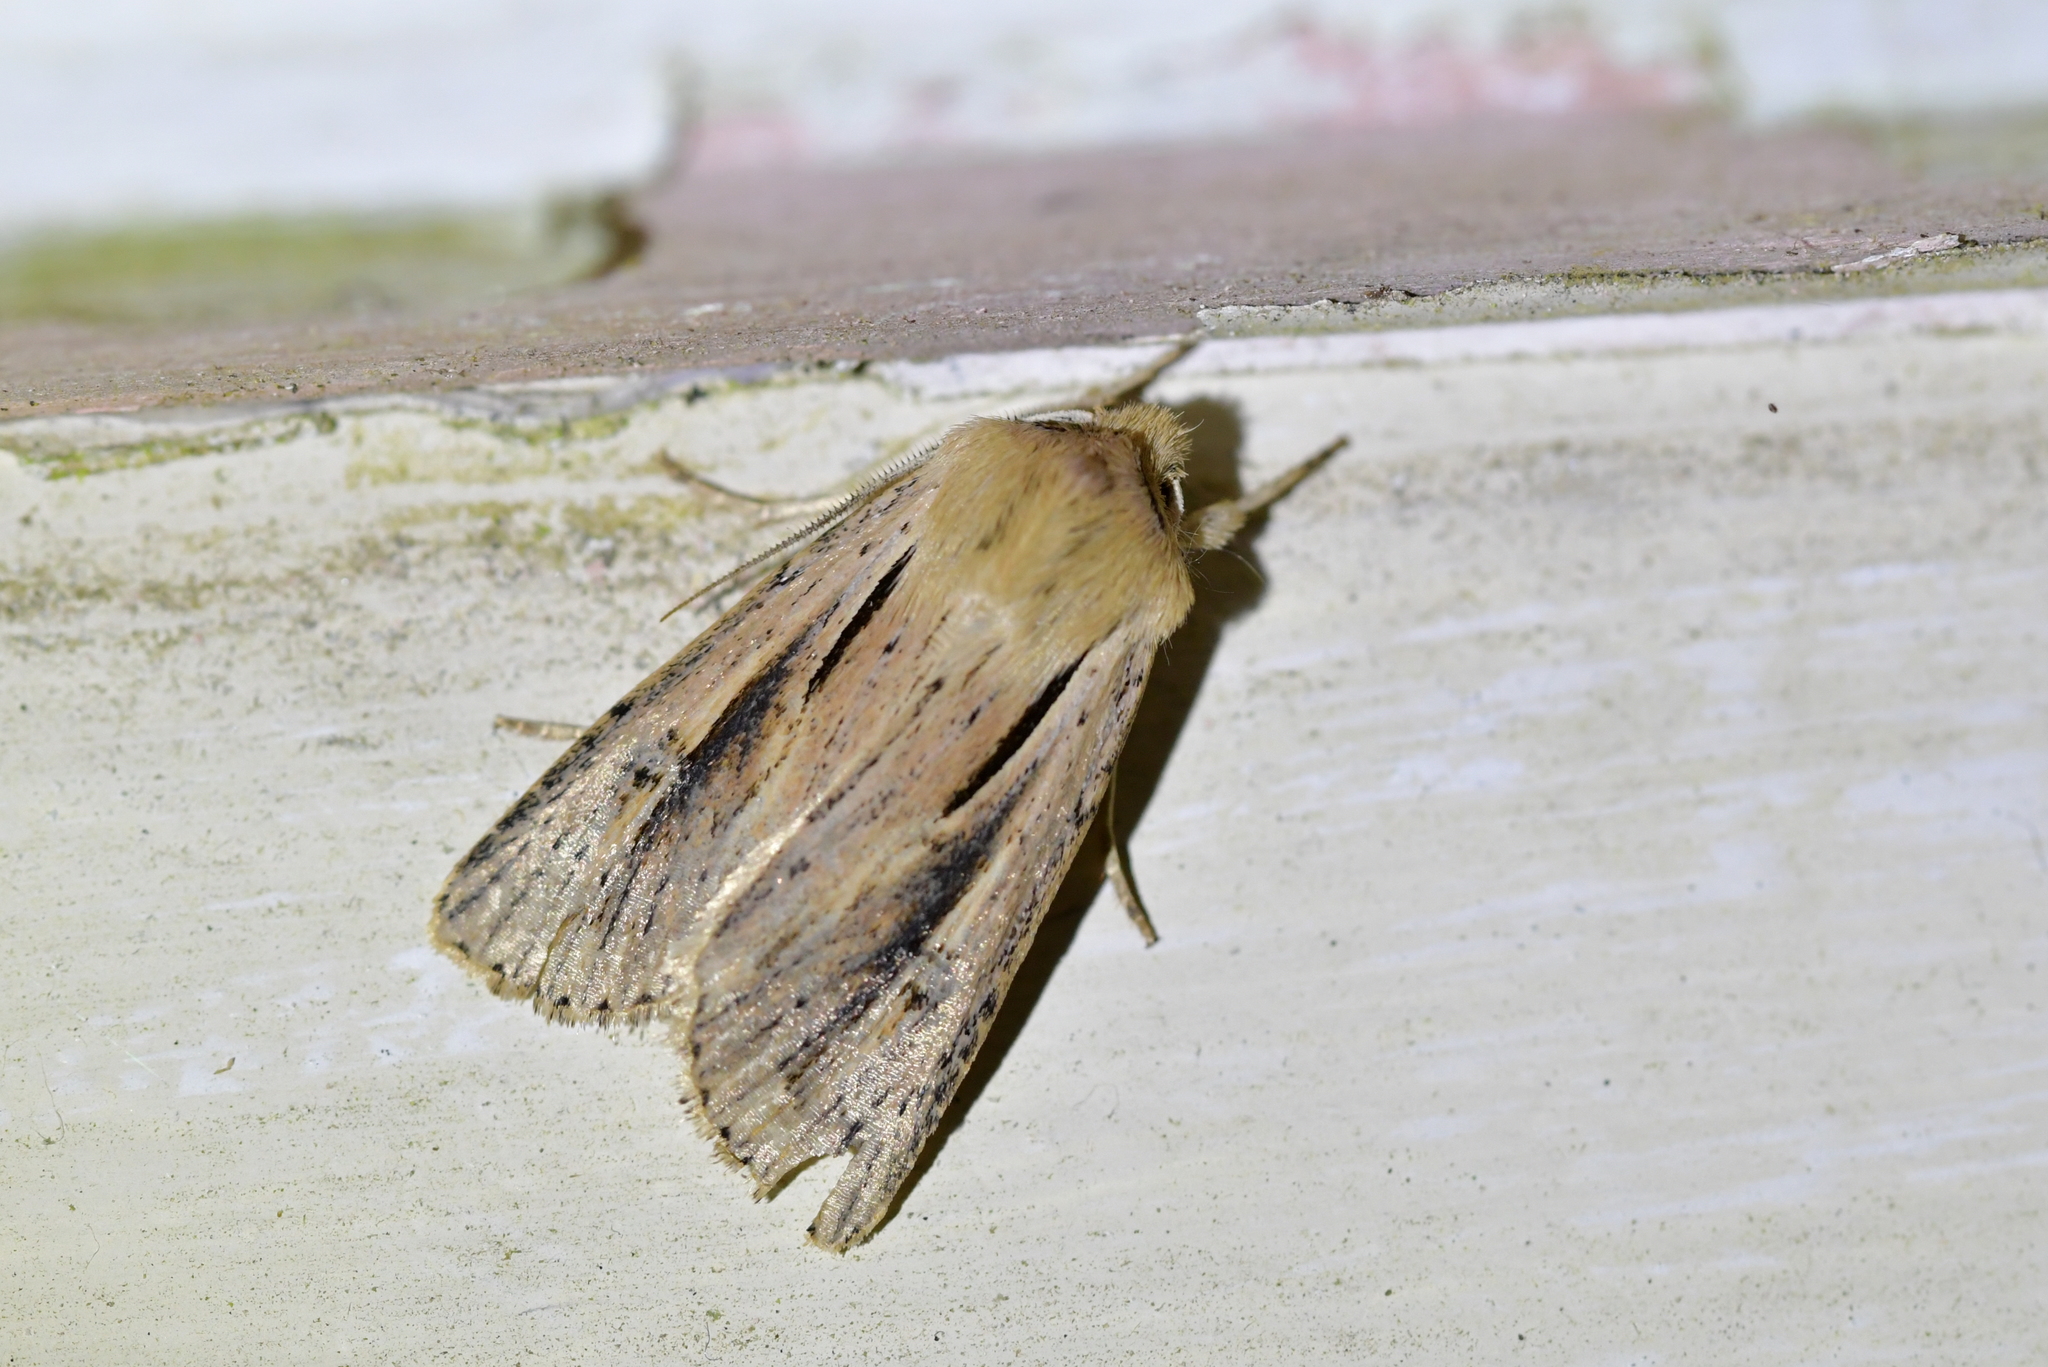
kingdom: Animalia
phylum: Arthropoda
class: Insecta
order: Lepidoptera
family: Noctuidae
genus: Ichneutica
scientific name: Ichneutica propria
